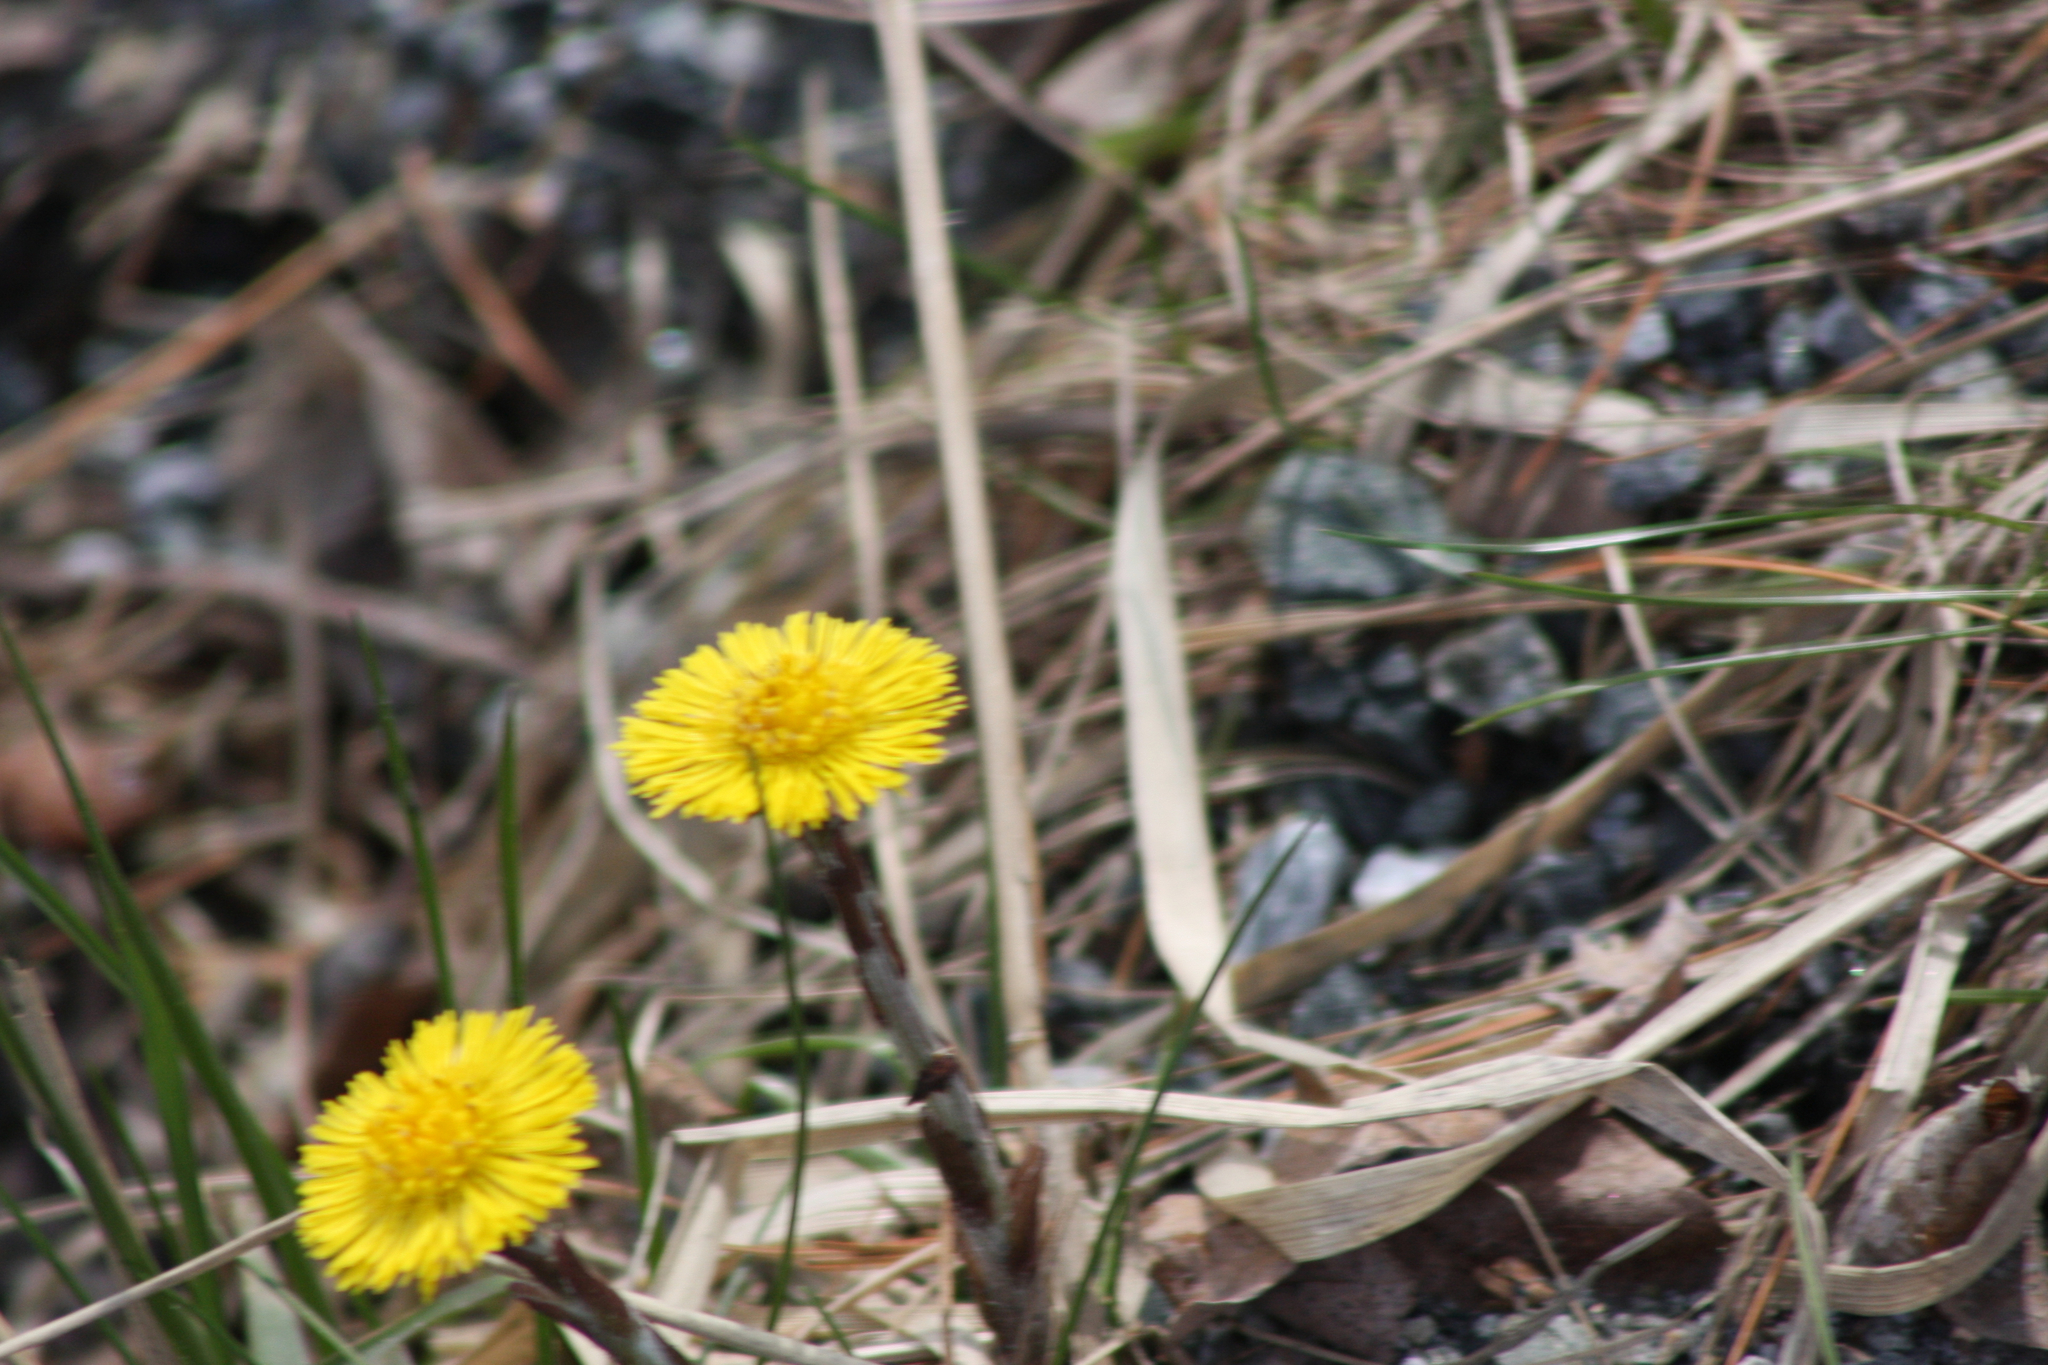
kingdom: Plantae
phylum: Tracheophyta
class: Magnoliopsida
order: Asterales
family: Asteraceae
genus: Tussilago
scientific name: Tussilago farfara
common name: Coltsfoot
